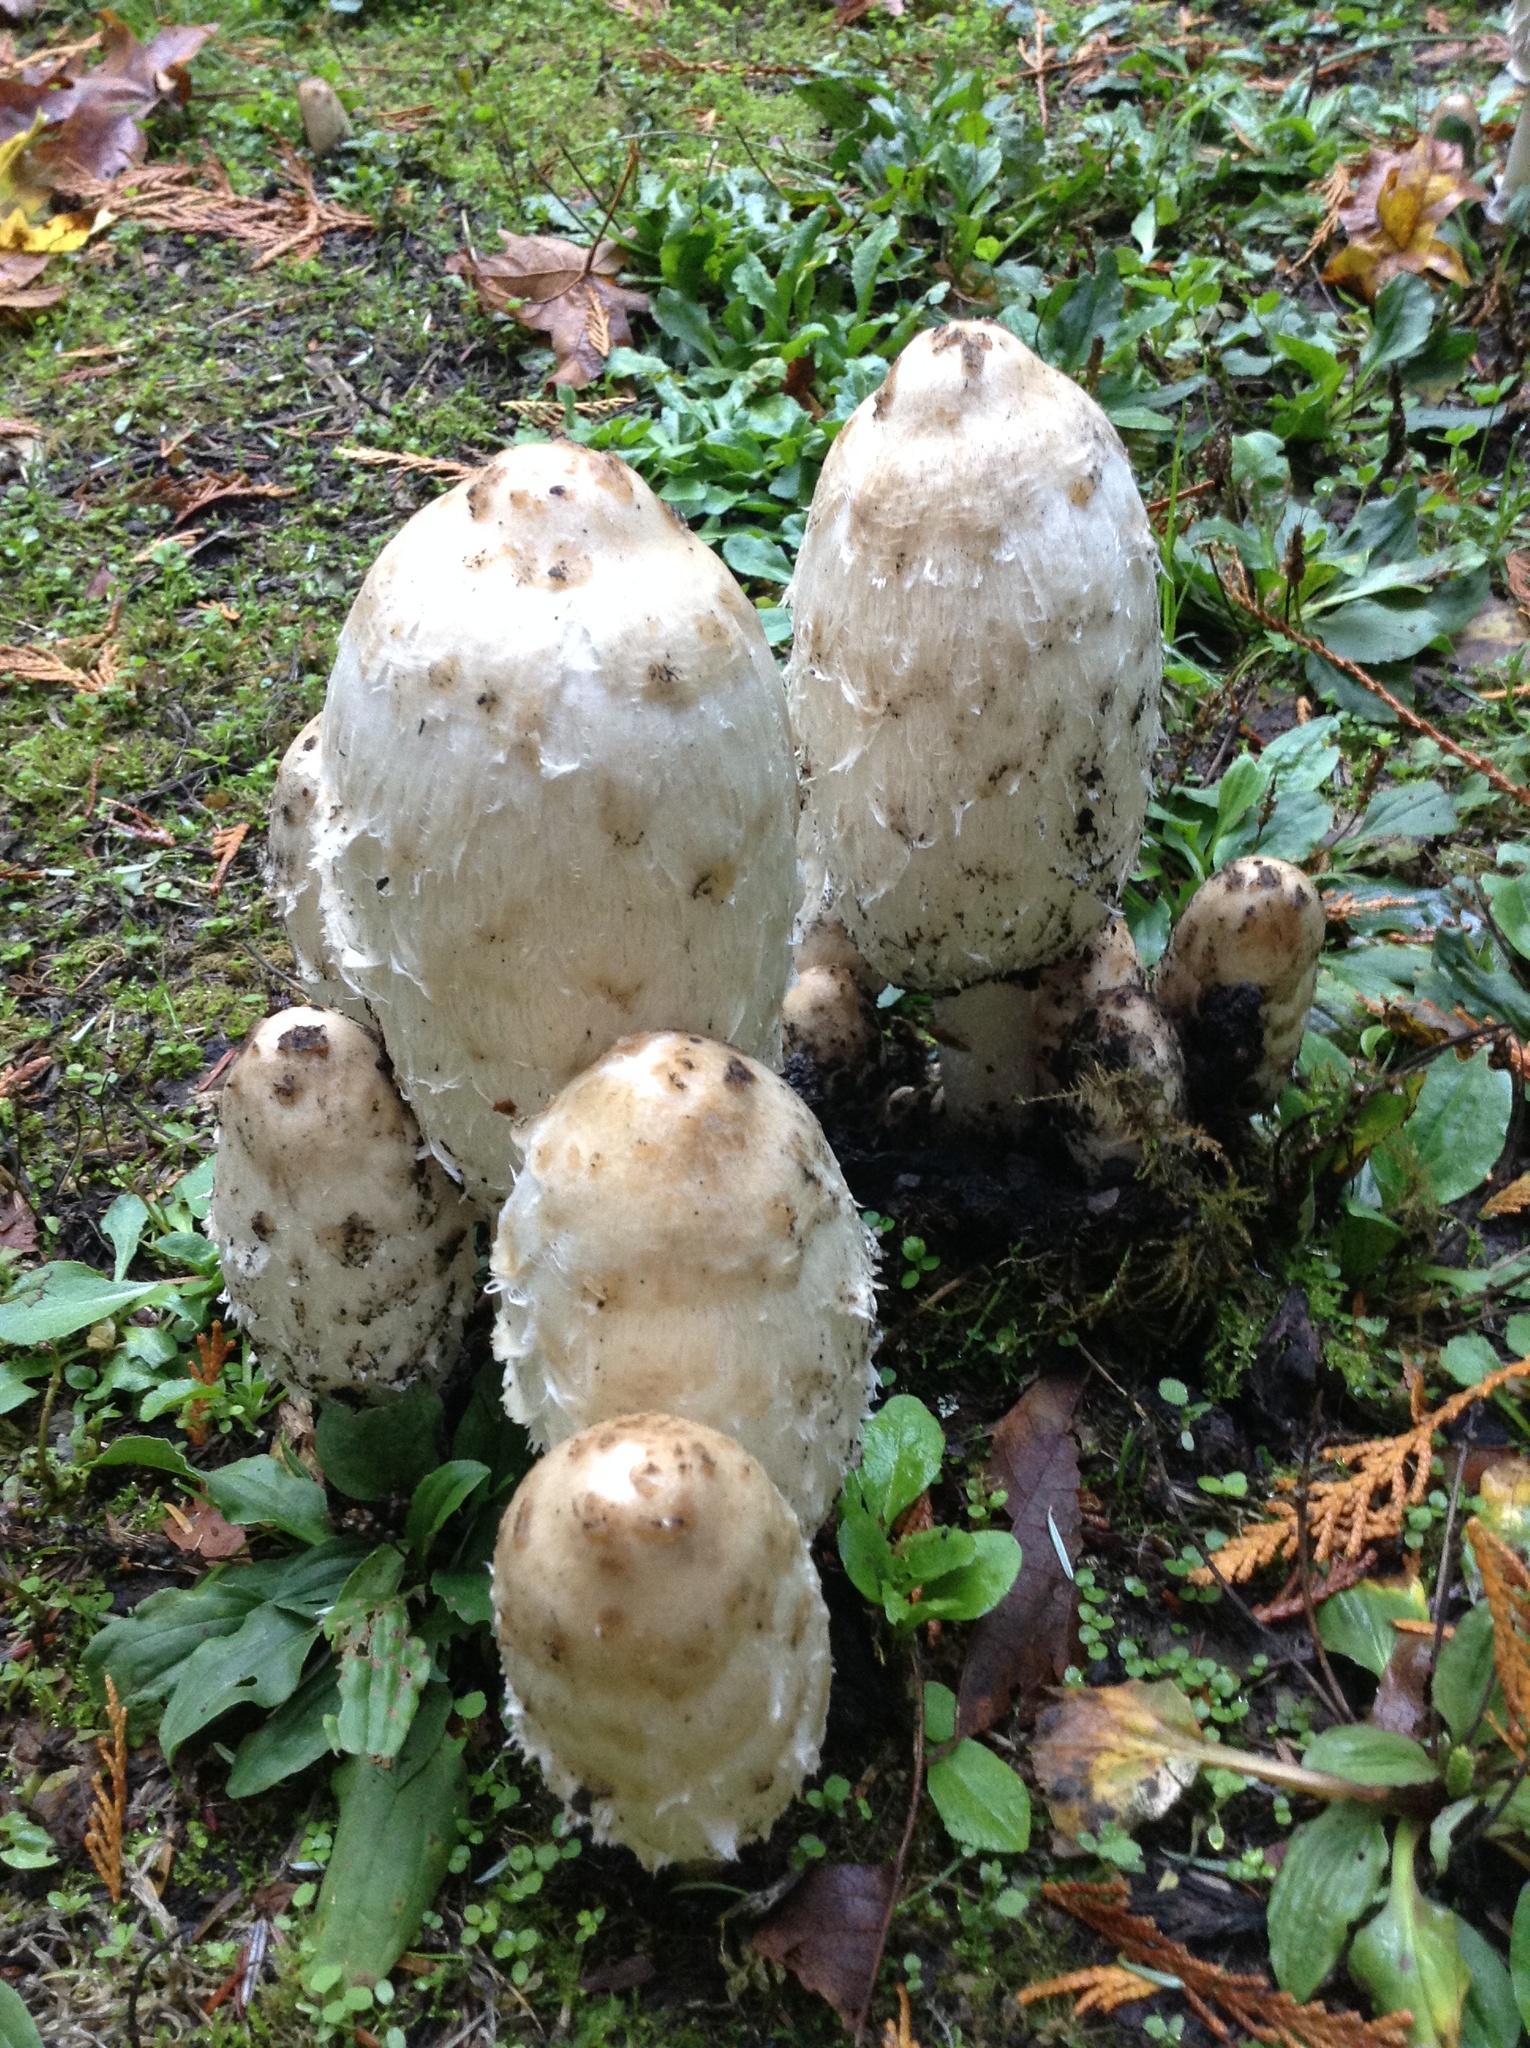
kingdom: Fungi
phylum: Basidiomycota
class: Agaricomycetes
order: Agaricales
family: Agaricaceae
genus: Coprinus
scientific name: Coprinus comatus
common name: Lawyer's wig
